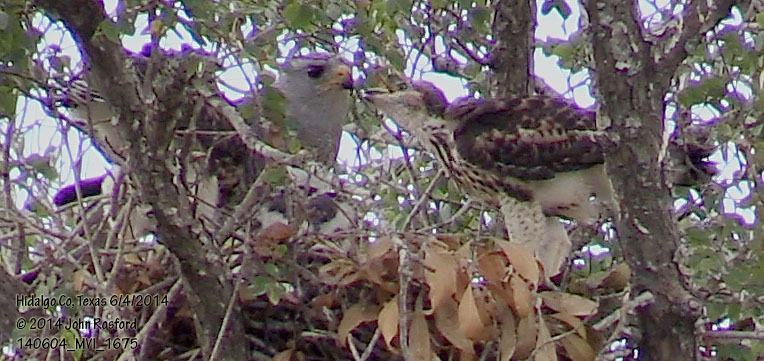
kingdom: Animalia
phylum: Chordata
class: Aves
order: Accipitriformes
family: Accipitridae
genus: Buteo
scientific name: Buteo nitidus
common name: Grey-lined hawk
